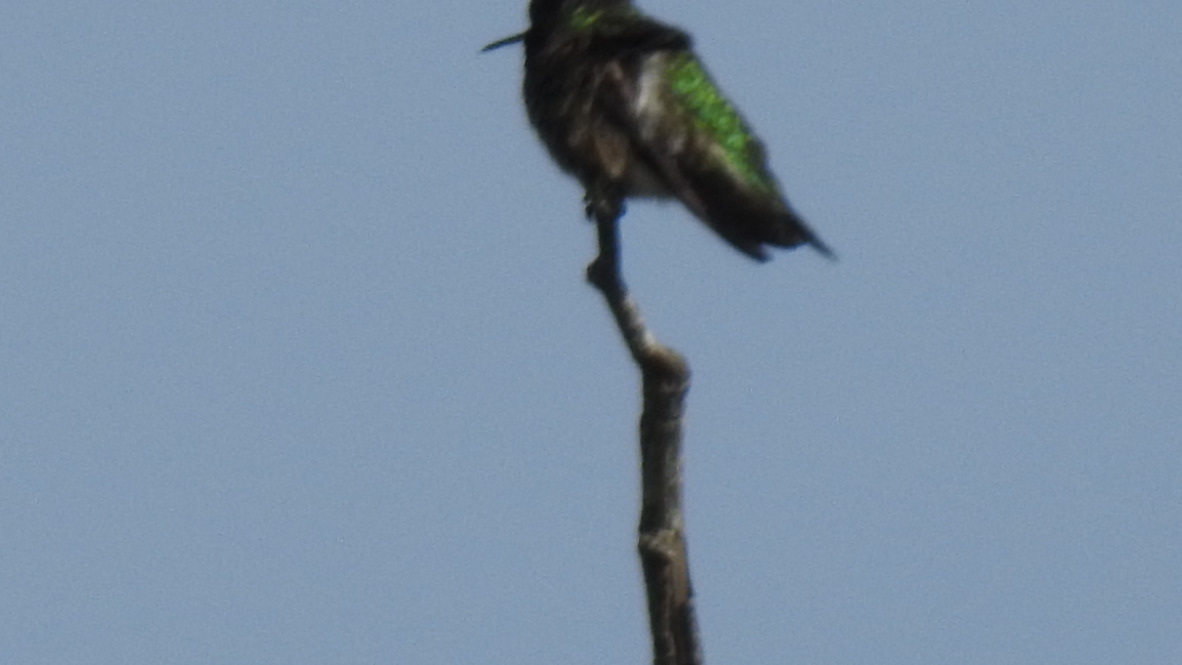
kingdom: Animalia
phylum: Chordata
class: Aves
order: Apodiformes
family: Trochilidae
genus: Calypte
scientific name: Calypte anna
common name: Anna's hummingbird
